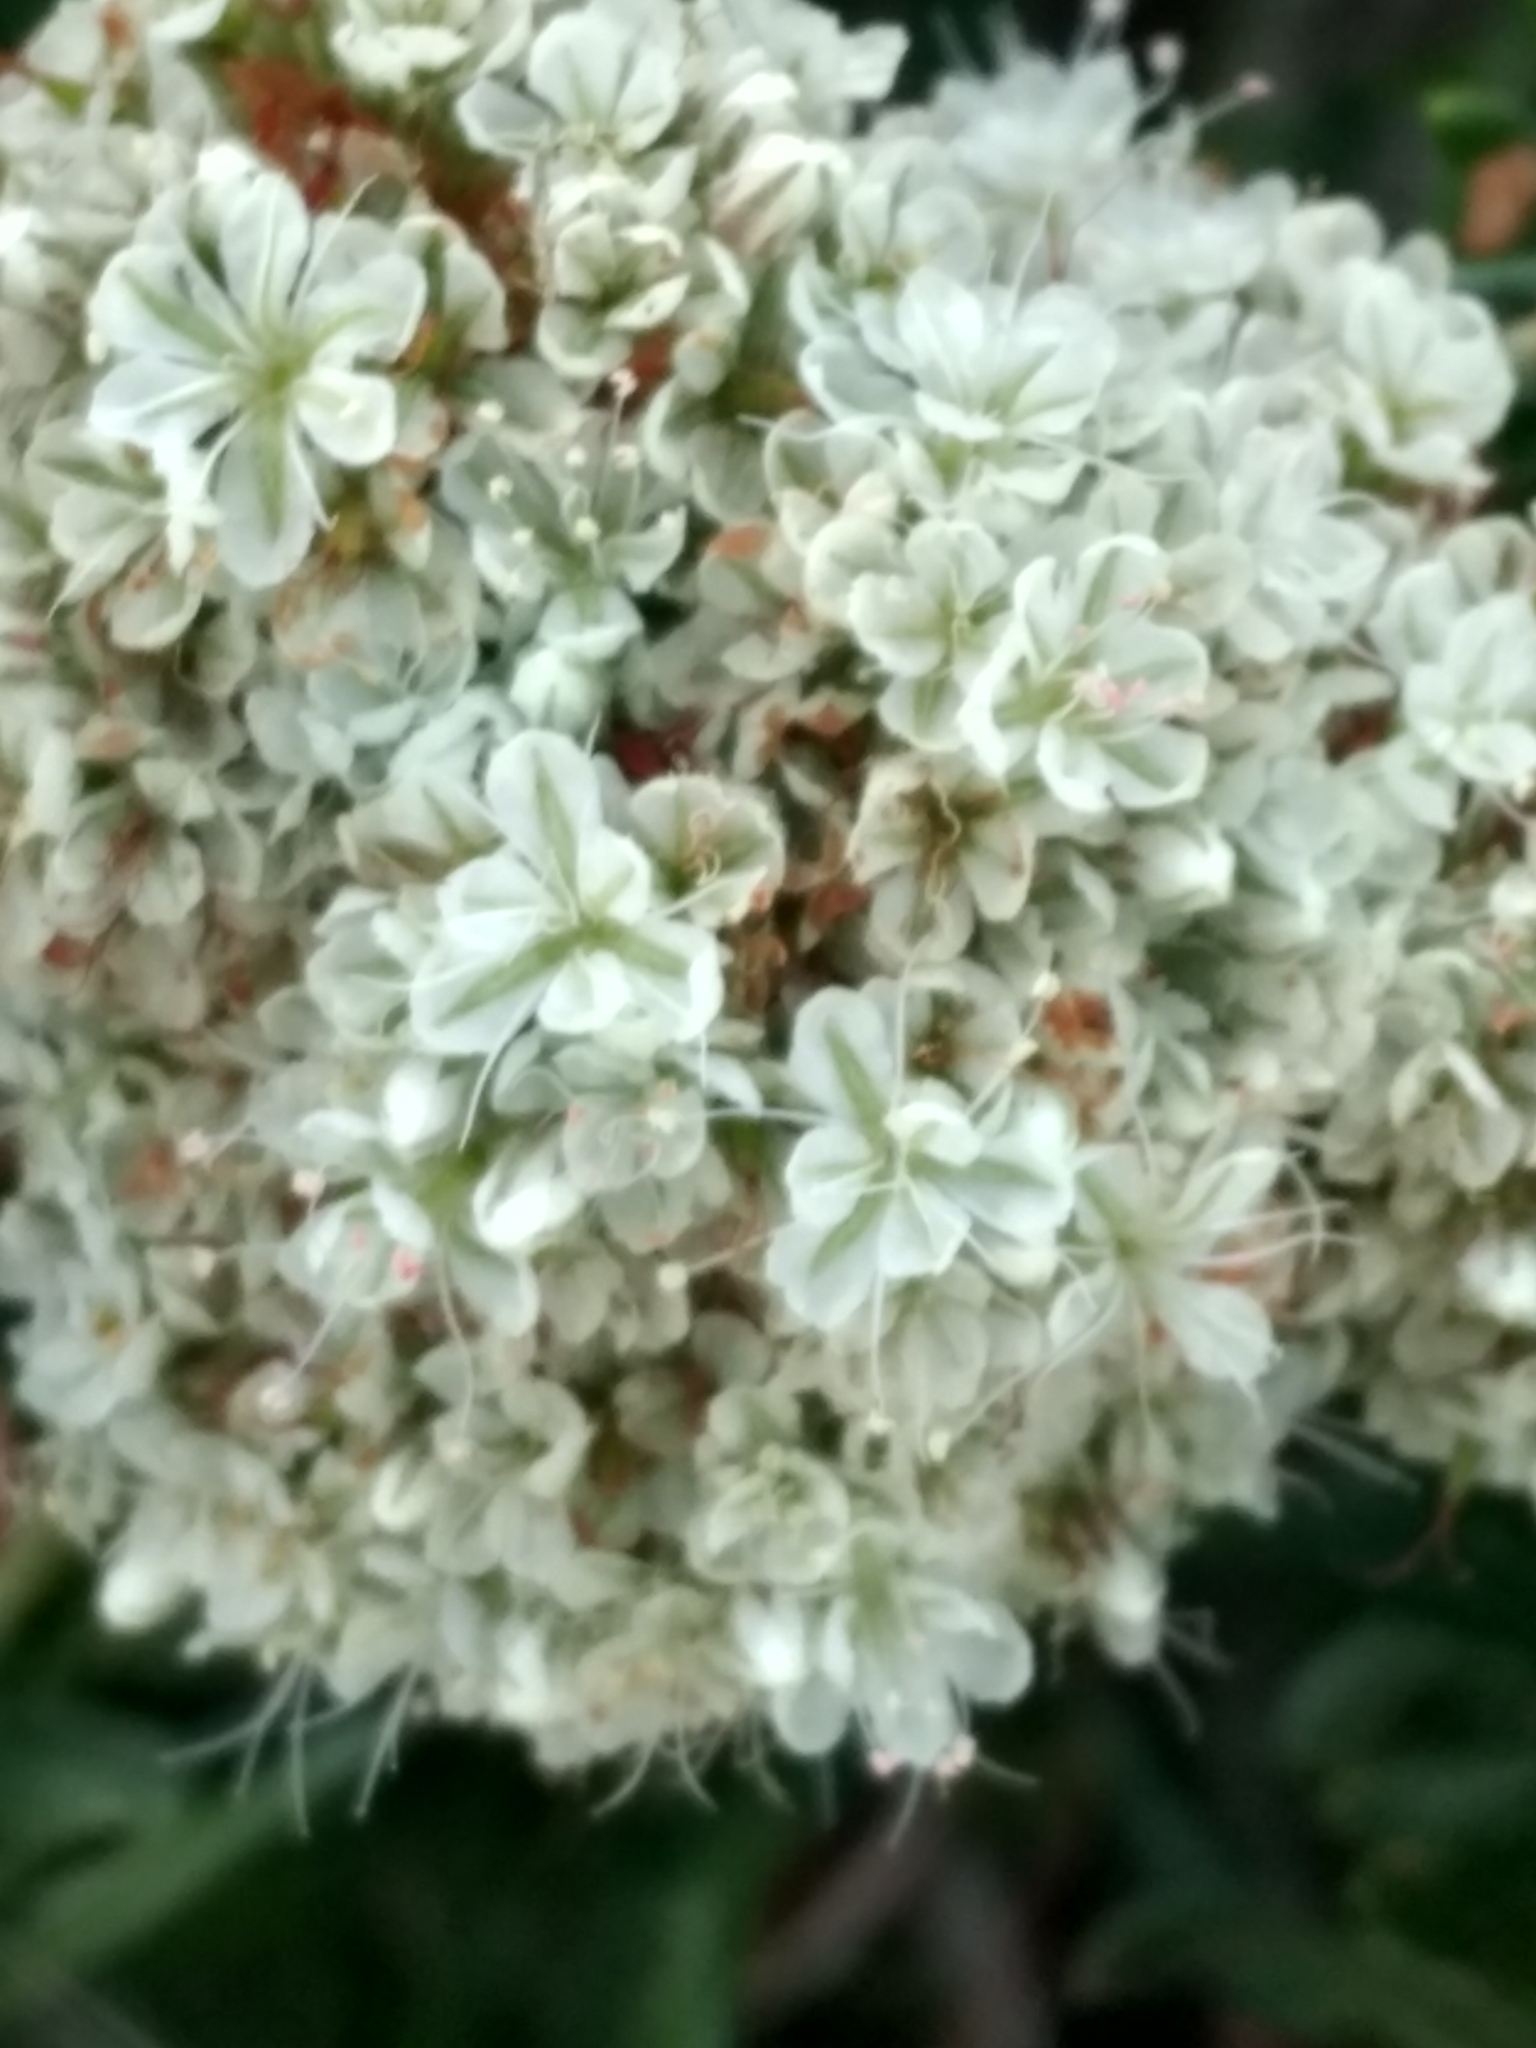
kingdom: Plantae
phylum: Tracheophyta
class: Magnoliopsida
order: Caryophyllales
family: Polygonaceae
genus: Eriogonum
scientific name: Eriogonum fasciculatum
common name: California wild buckwheat
